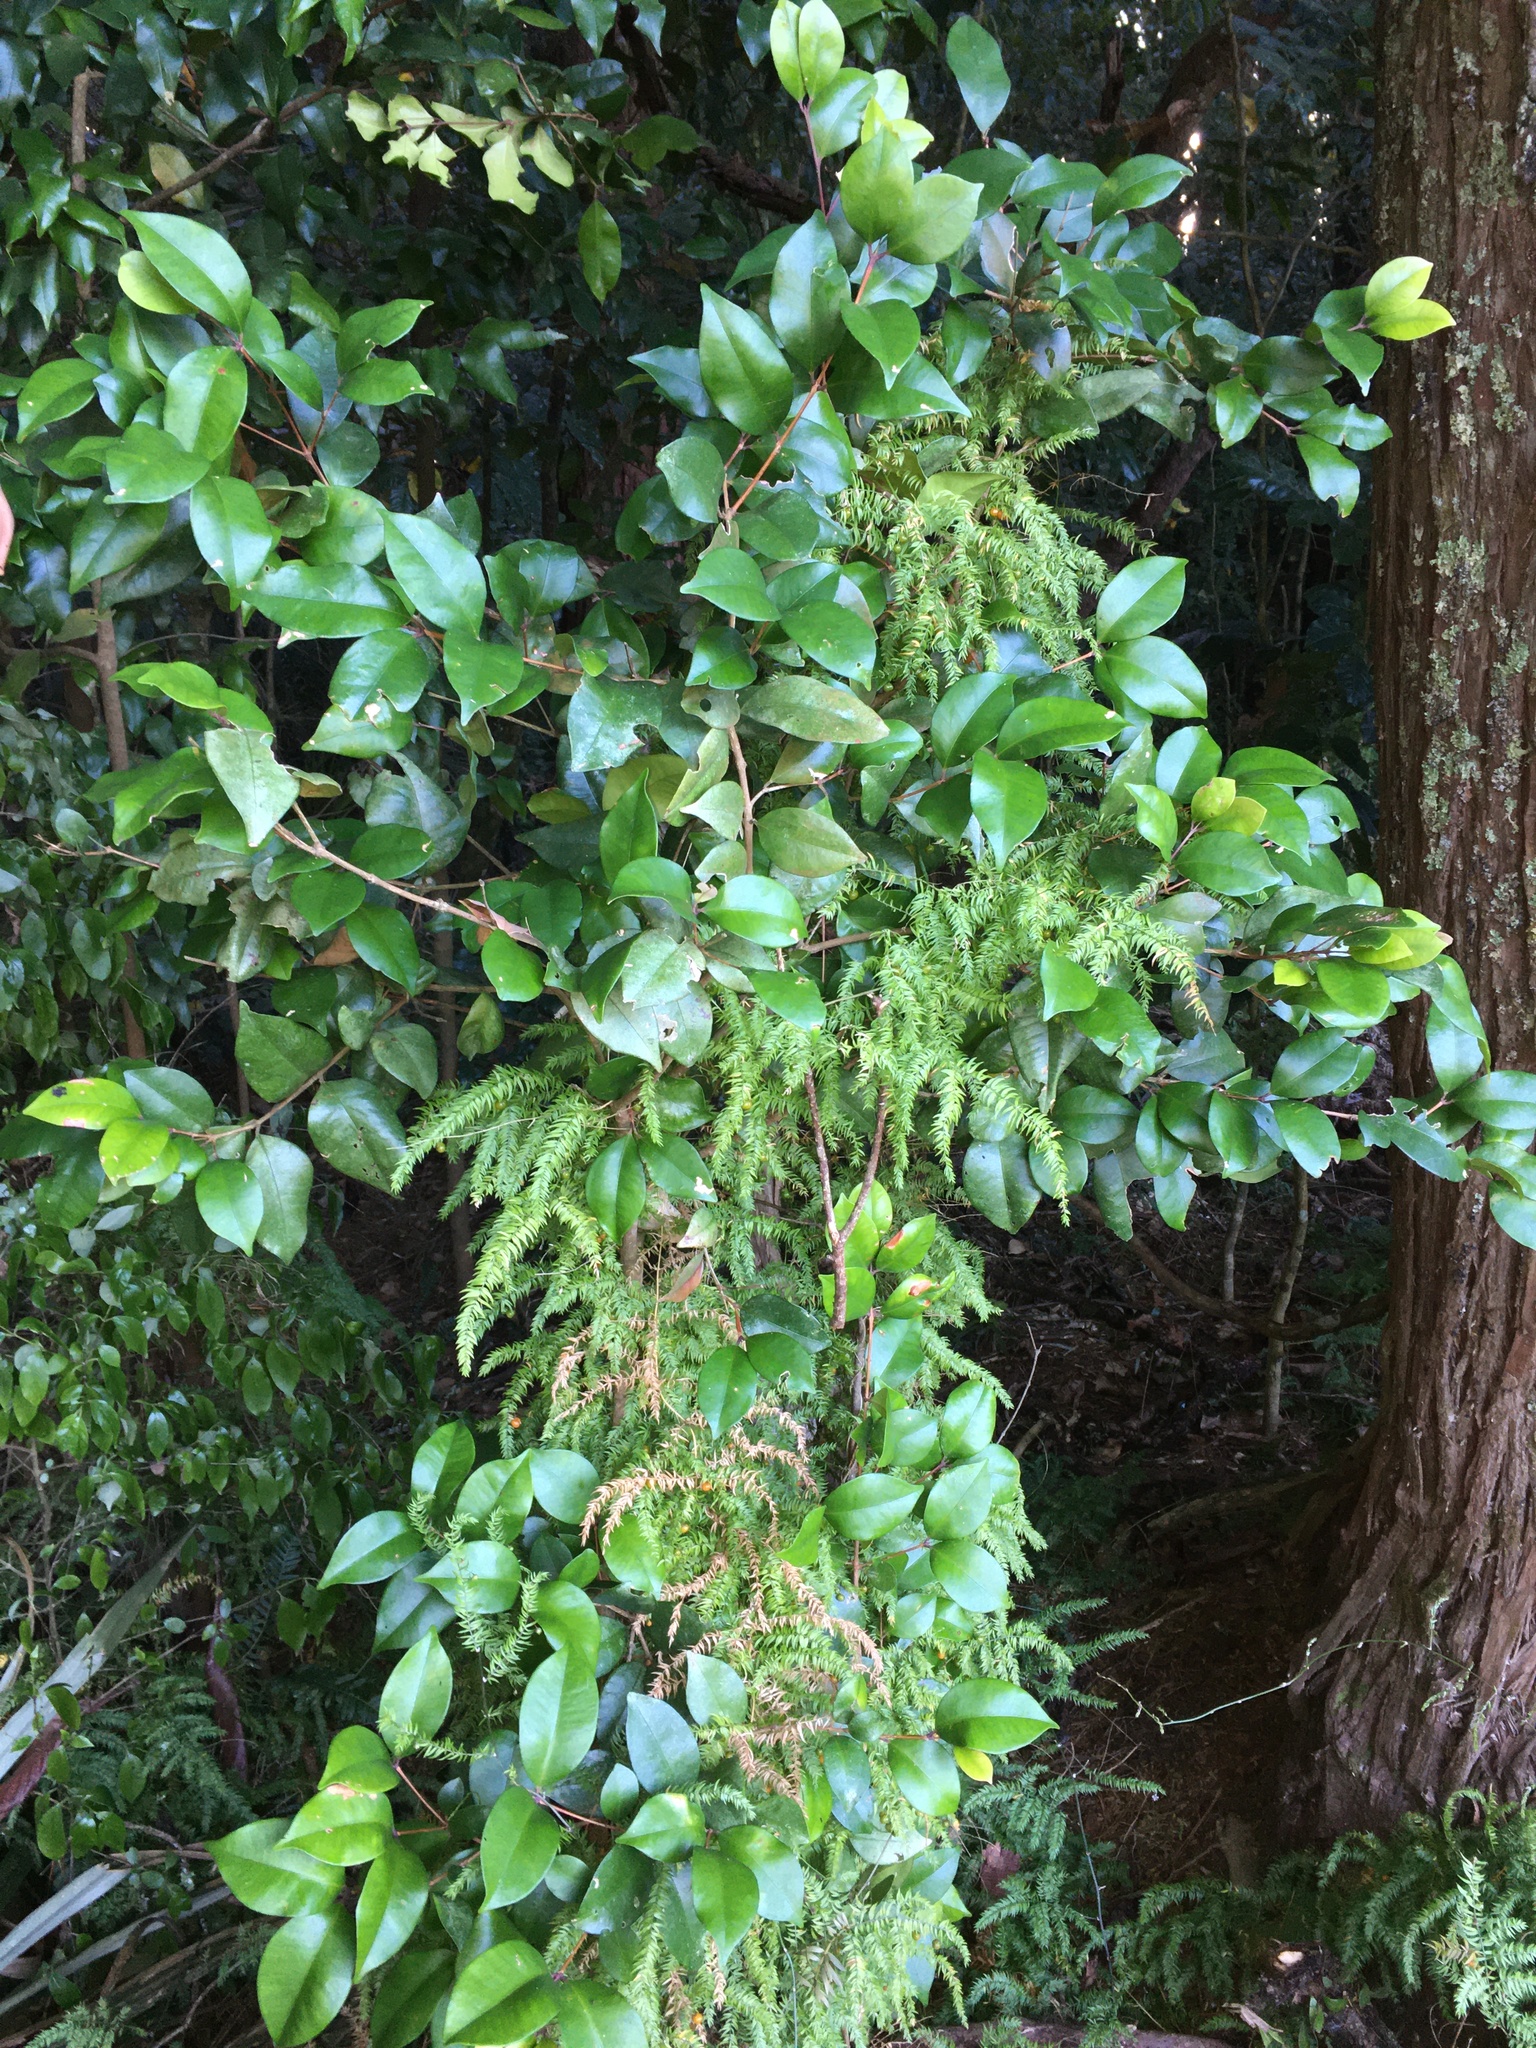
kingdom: Plantae
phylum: Tracheophyta
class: Magnoliopsida
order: Myrtales
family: Myrtaceae
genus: Syzygium
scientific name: Syzygium smithii
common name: Lilly-pilly
